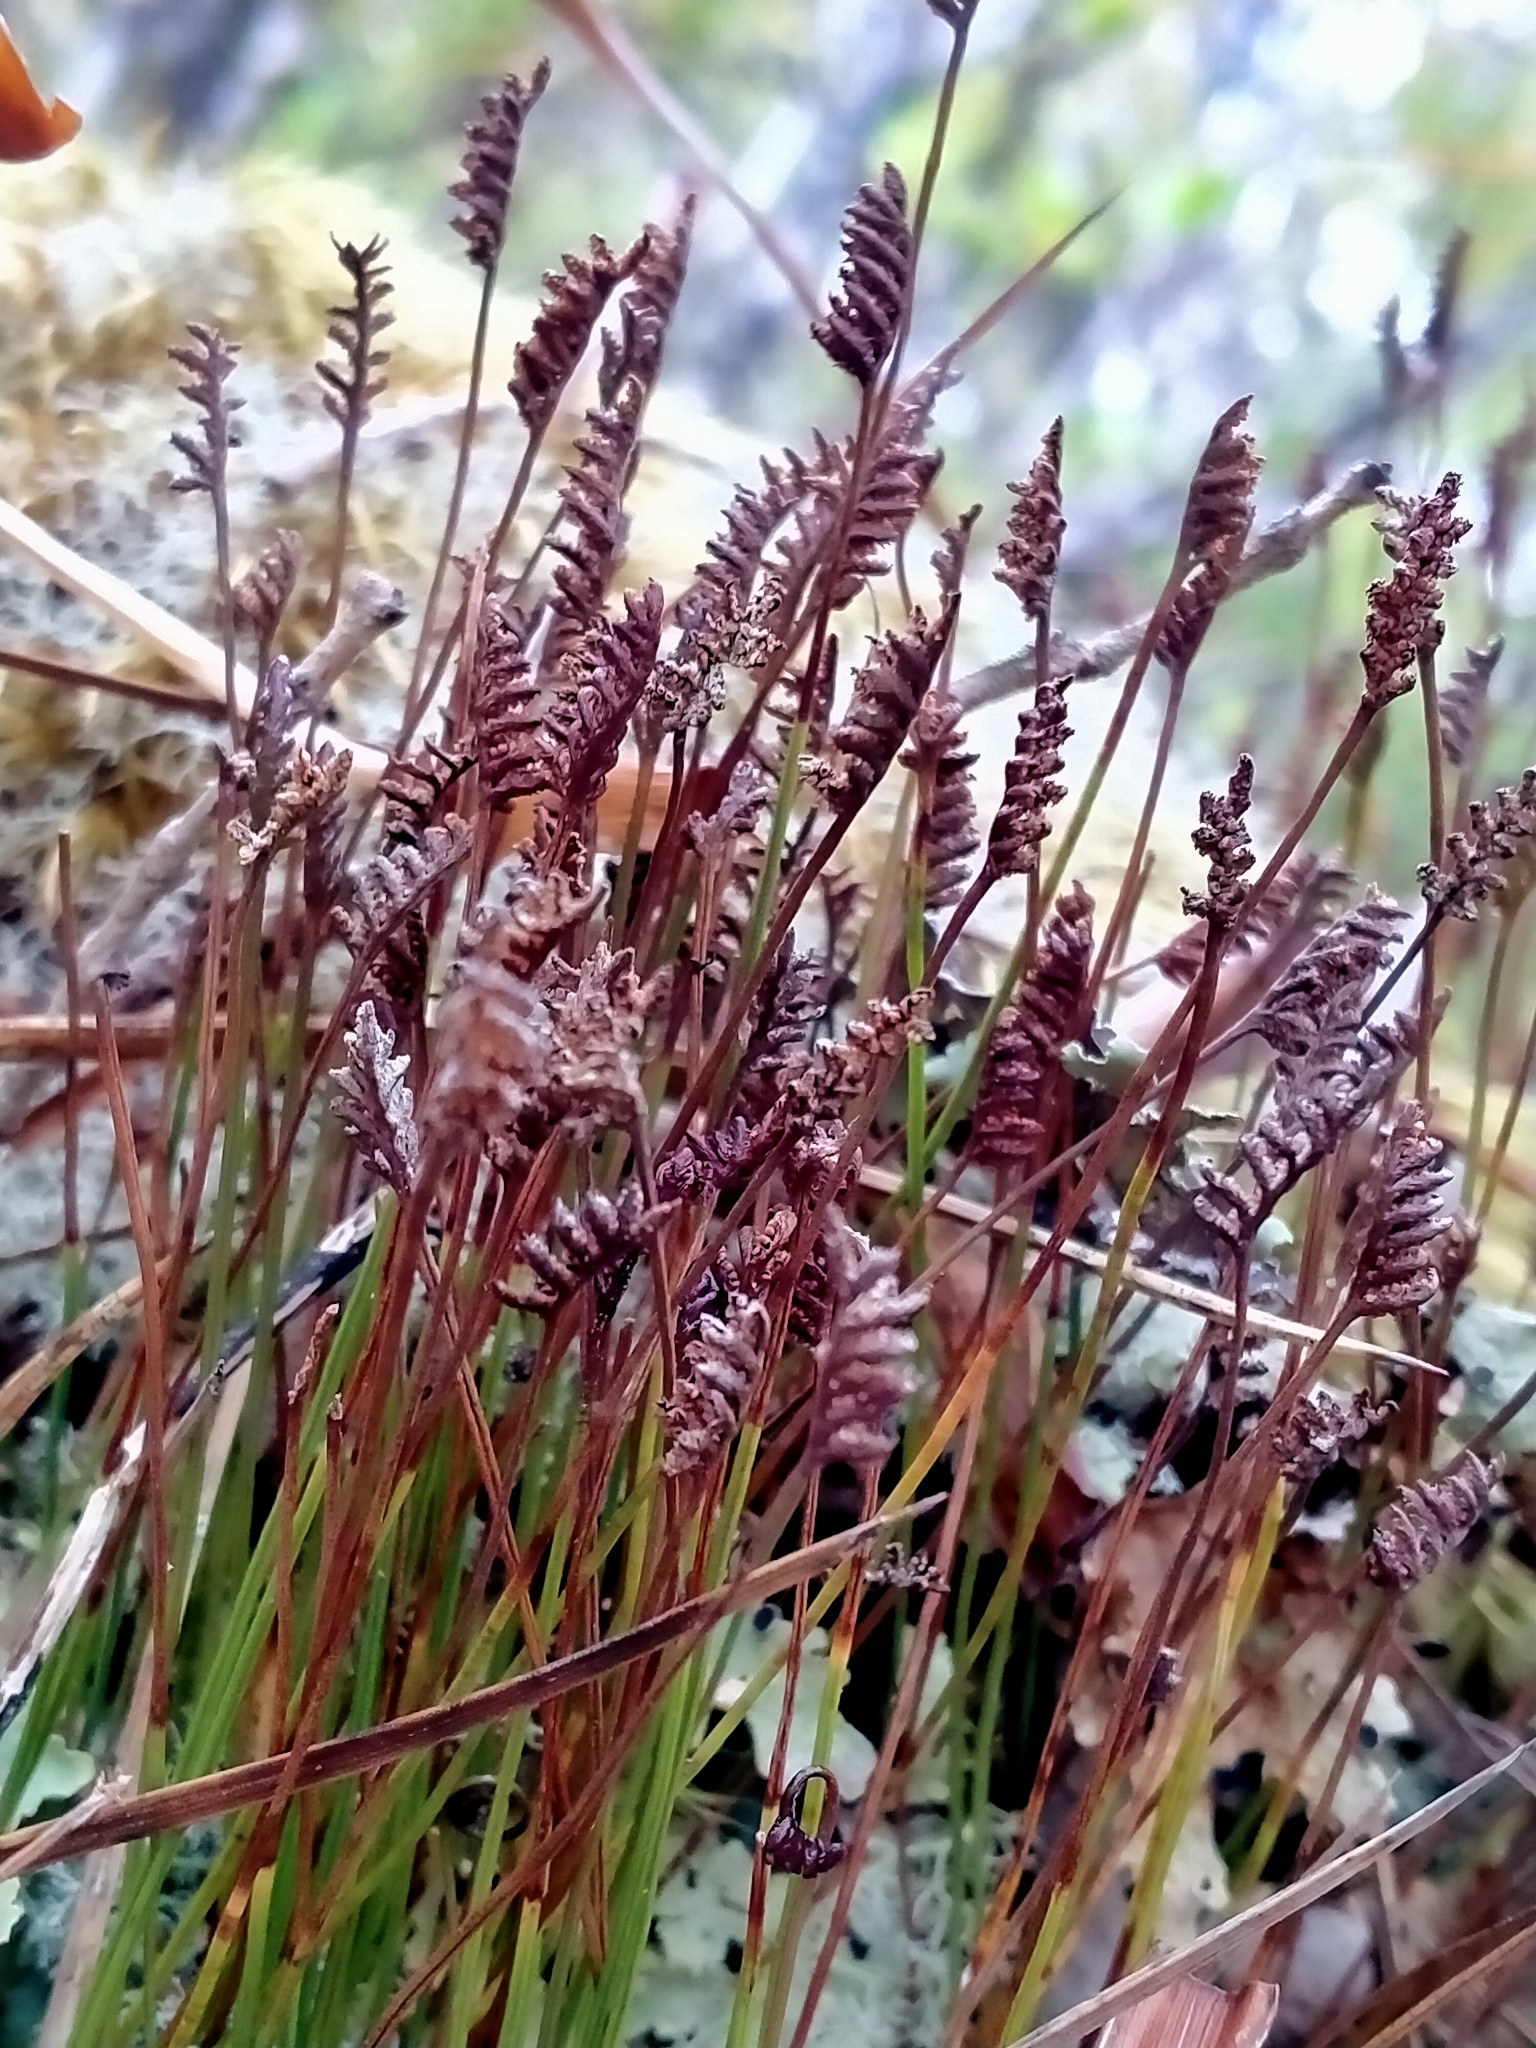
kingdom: Plantae
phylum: Tracheophyta
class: Polypodiopsida
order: Schizaeales
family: Schizaeaceae
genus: Microschizaea
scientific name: Microschizaea australis
